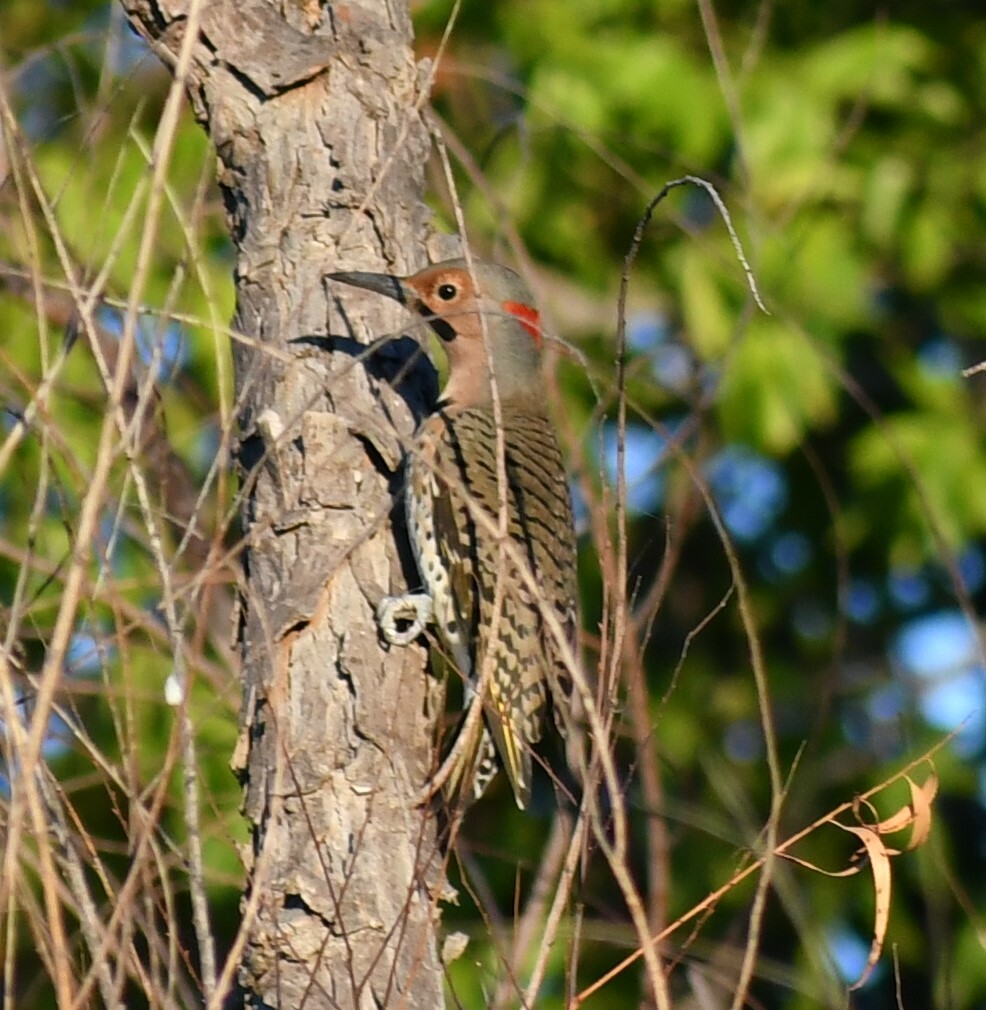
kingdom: Animalia
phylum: Chordata
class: Aves
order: Piciformes
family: Picidae
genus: Colaptes
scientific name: Colaptes auratus
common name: Northern flicker
